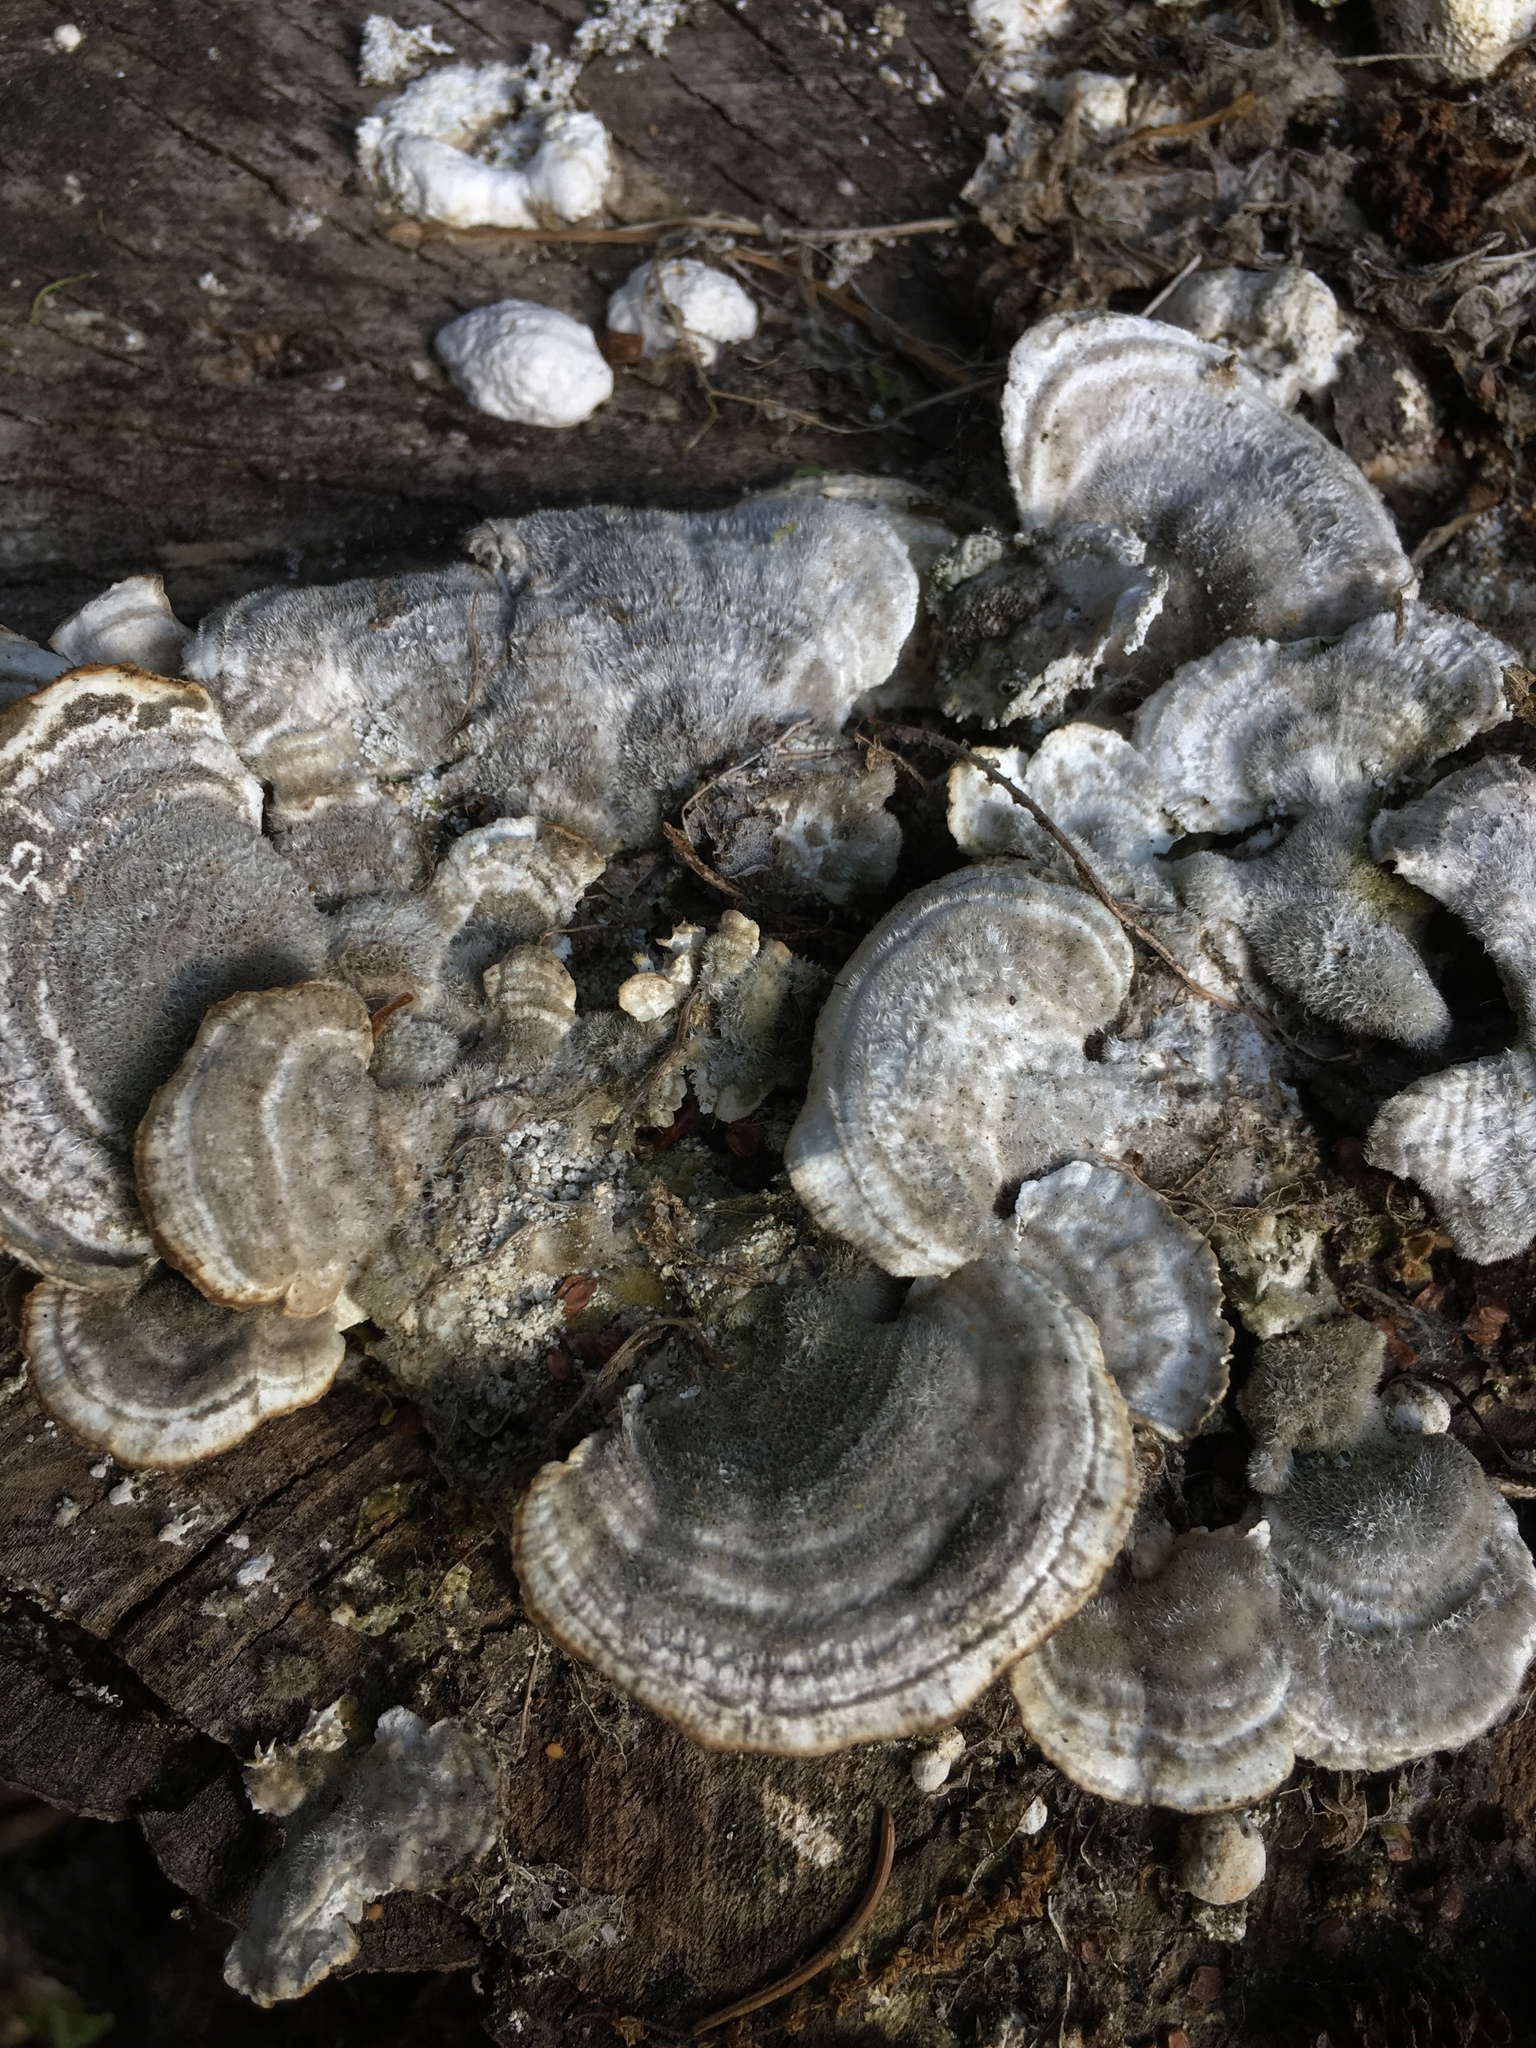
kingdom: Fungi
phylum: Basidiomycota
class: Agaricomycetes
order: Polyporales
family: Polyporaceae
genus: Lenzites
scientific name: Lenzites betulinus
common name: Birch mazegill
